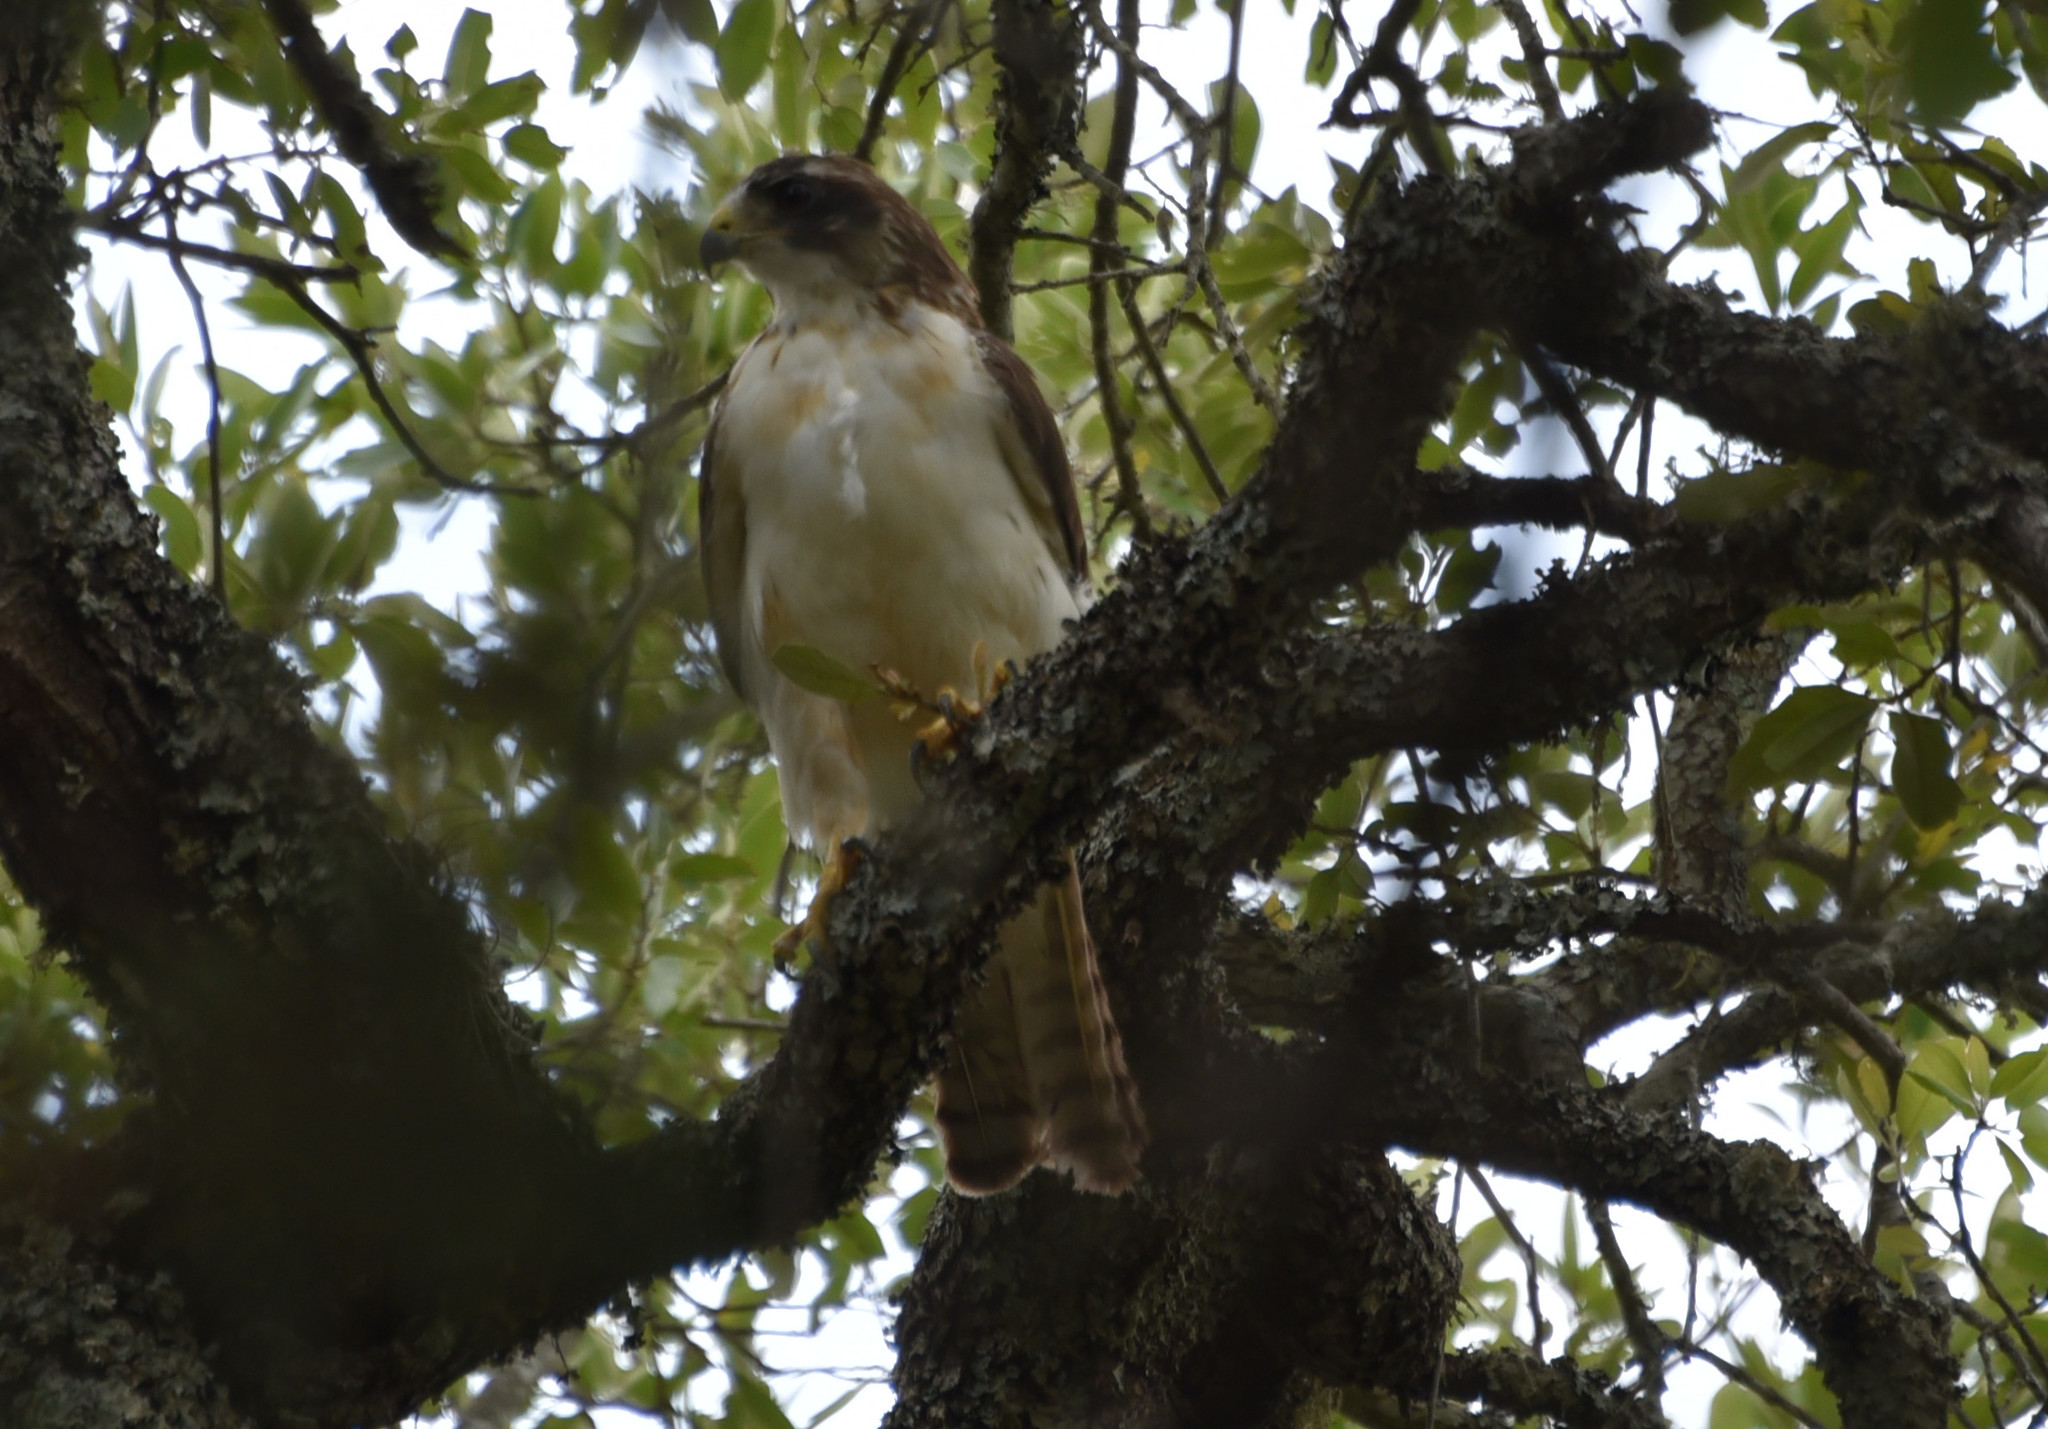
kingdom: Animalia
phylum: Chordata
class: Aves
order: Accipitriformes
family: Accipitridae
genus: Buteo
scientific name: Buteo brachyurus
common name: Short-tailed hawk
